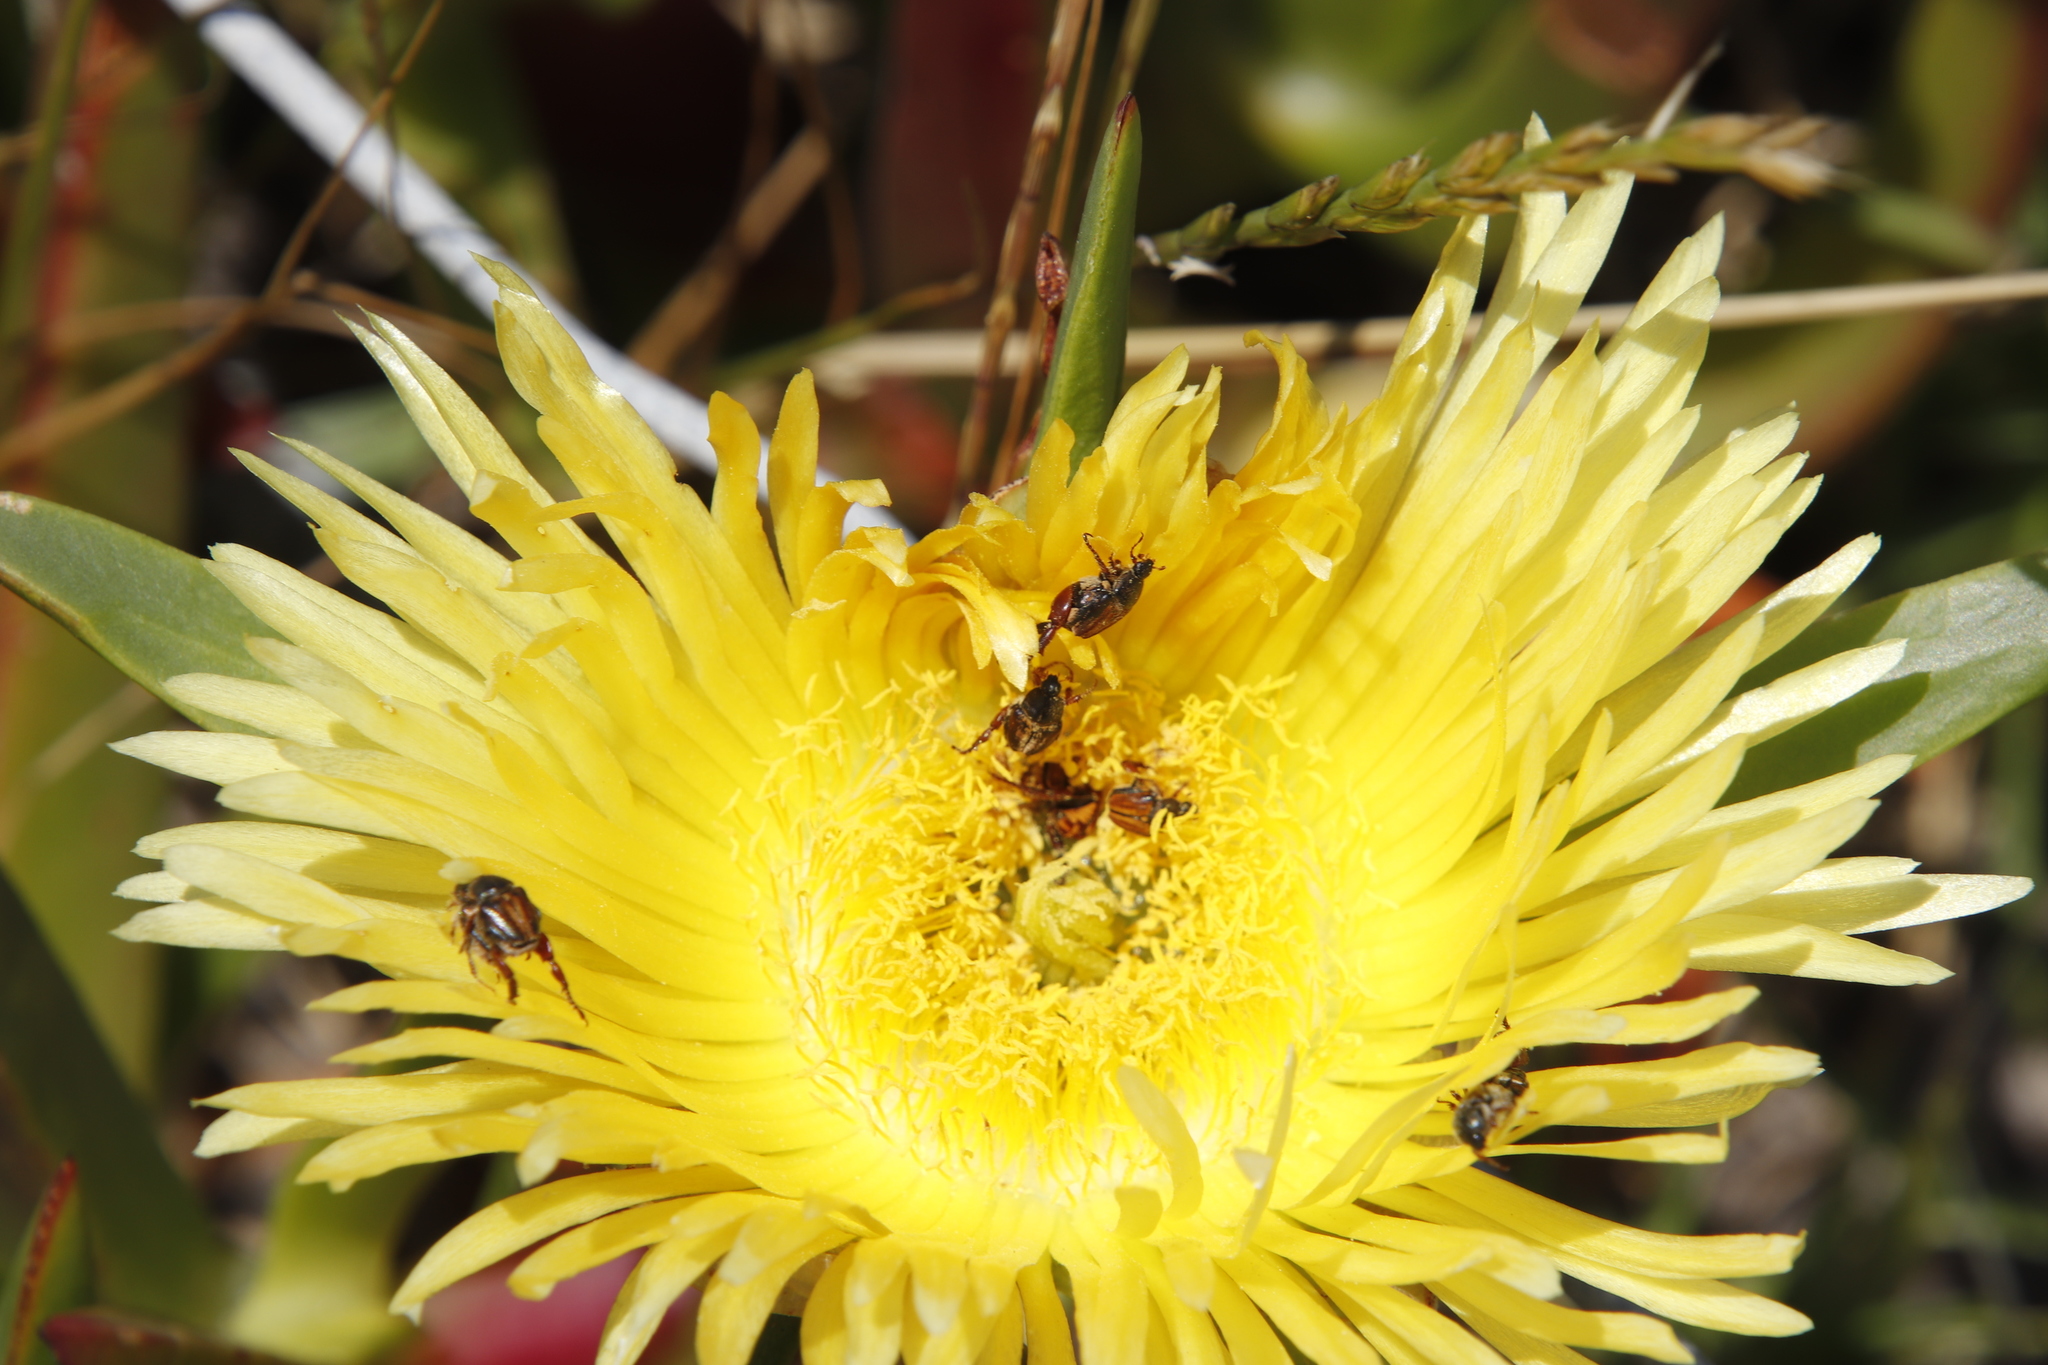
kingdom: Plantae
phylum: Tracheophyta
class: Magnoliopsida
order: Caryophyllales
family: Aizoaceae
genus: Carpobrotus
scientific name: Carpobrotus edulis
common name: Hottentot-fig
